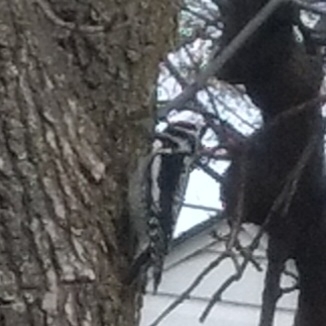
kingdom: Animalia
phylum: Chordata
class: Aves
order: Piciformes
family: Picidae
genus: Sphyrapicus
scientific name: Sphyrapicus varius
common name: Yellow-bellied sapsucker
